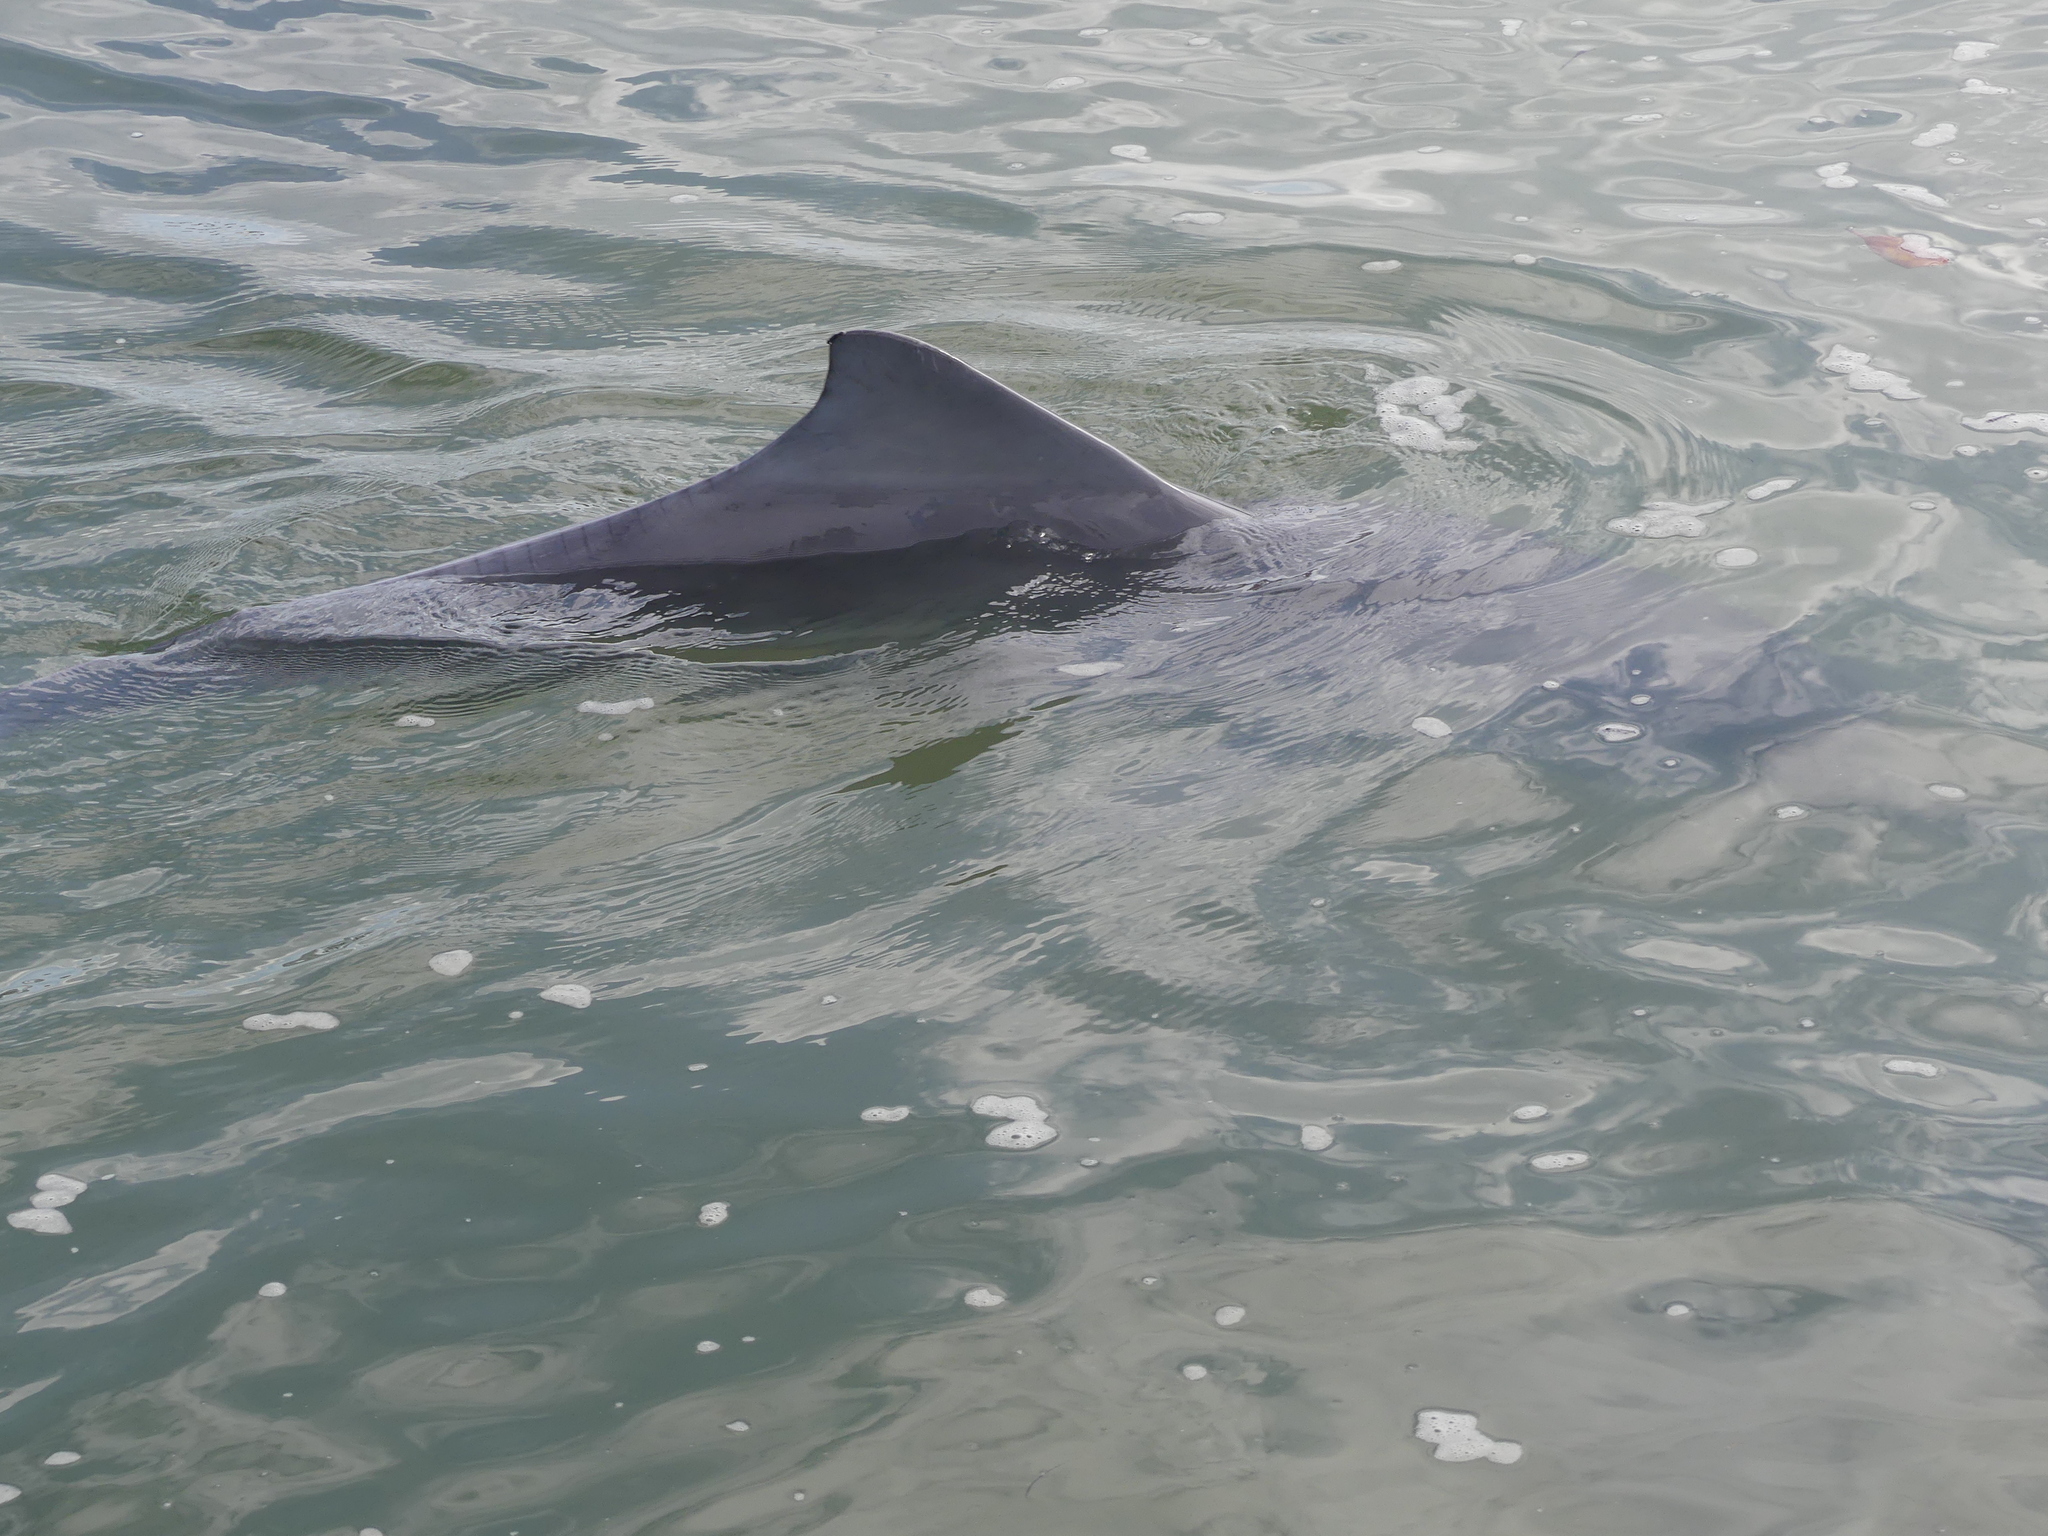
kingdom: Animalia
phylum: Chordata
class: Mammalia
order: Cetacea
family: Delphinidae
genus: Sousa
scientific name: Sousa sahulensis
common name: Australian humpback dolphin
